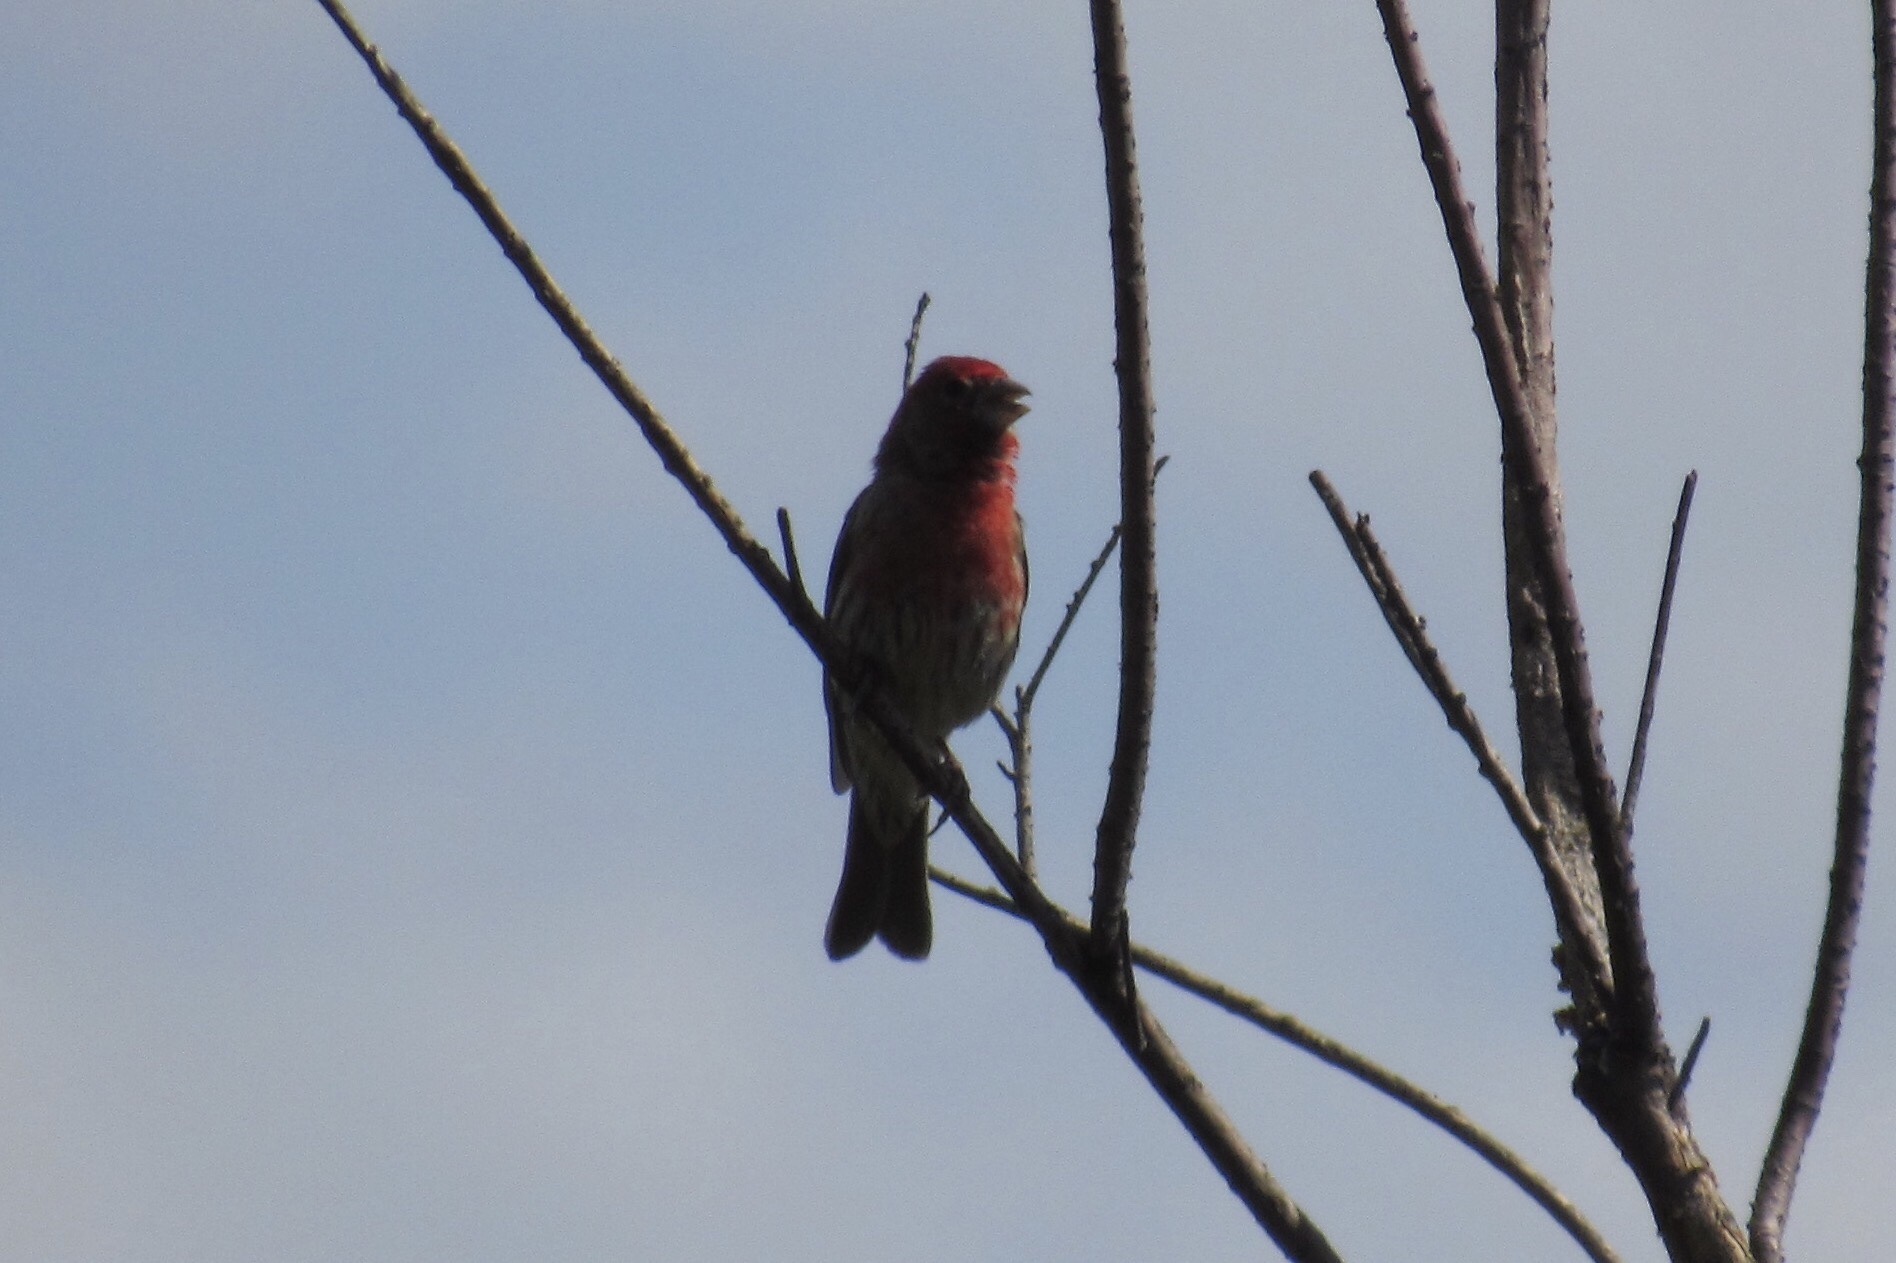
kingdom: Animalia
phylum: Chordata
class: Aves
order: Passeriformes
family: Fringillidae
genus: Haemorhous
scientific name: Haemorhous mexicanus
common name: House finch
